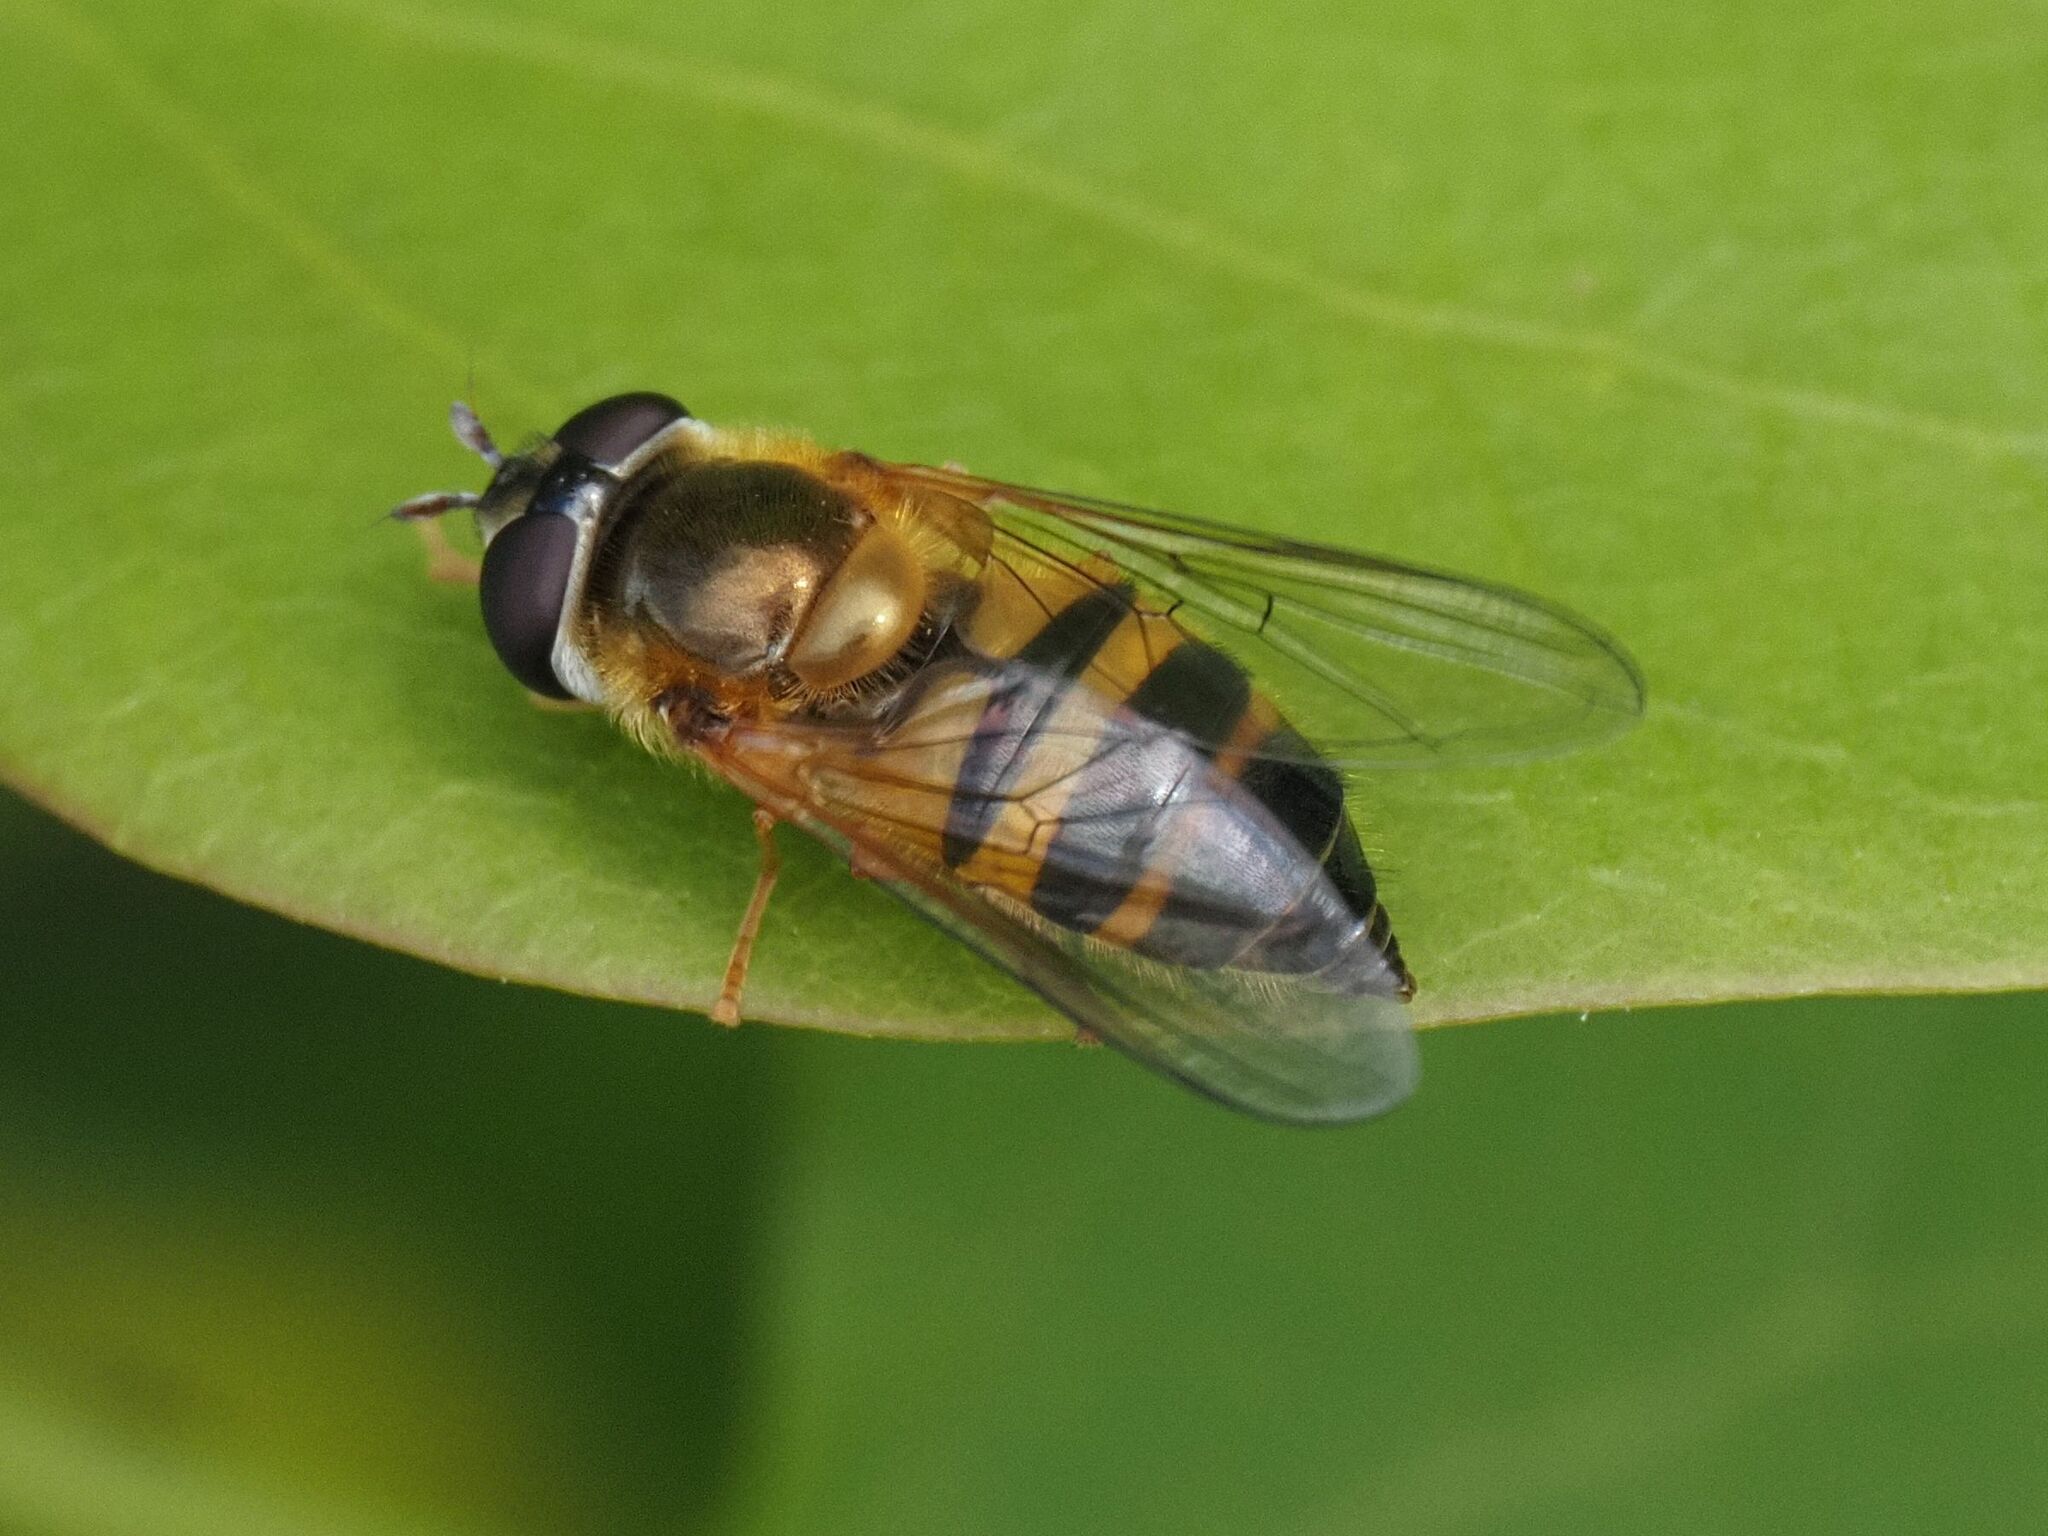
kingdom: Animalia
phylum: Arthropoda
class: Insecta
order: Diptera
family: Syrphidae
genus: Epistrophe
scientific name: Epistrophe eligans
